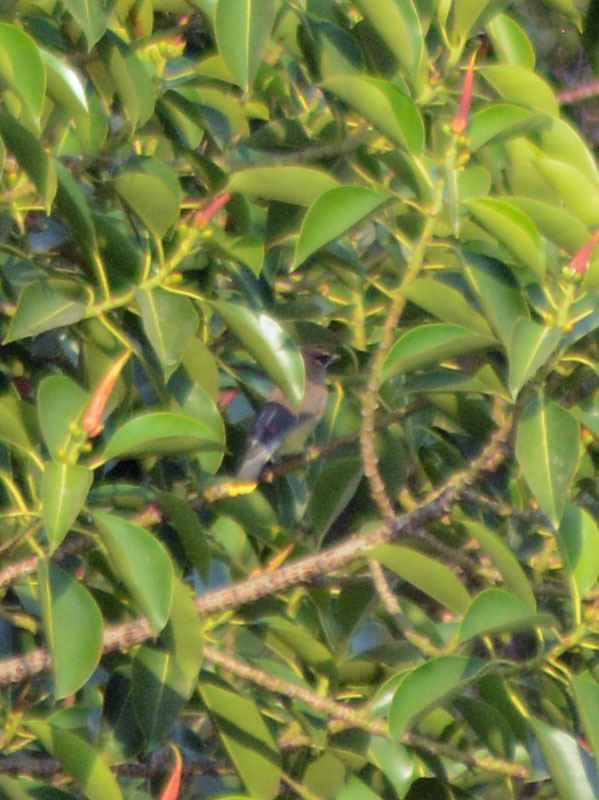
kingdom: Animalia
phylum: Chordata
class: Aves
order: Passeriformes
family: Bombycillidae
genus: Bombycilla
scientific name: Bombycilla cedrorum
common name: Cedar waxwing
